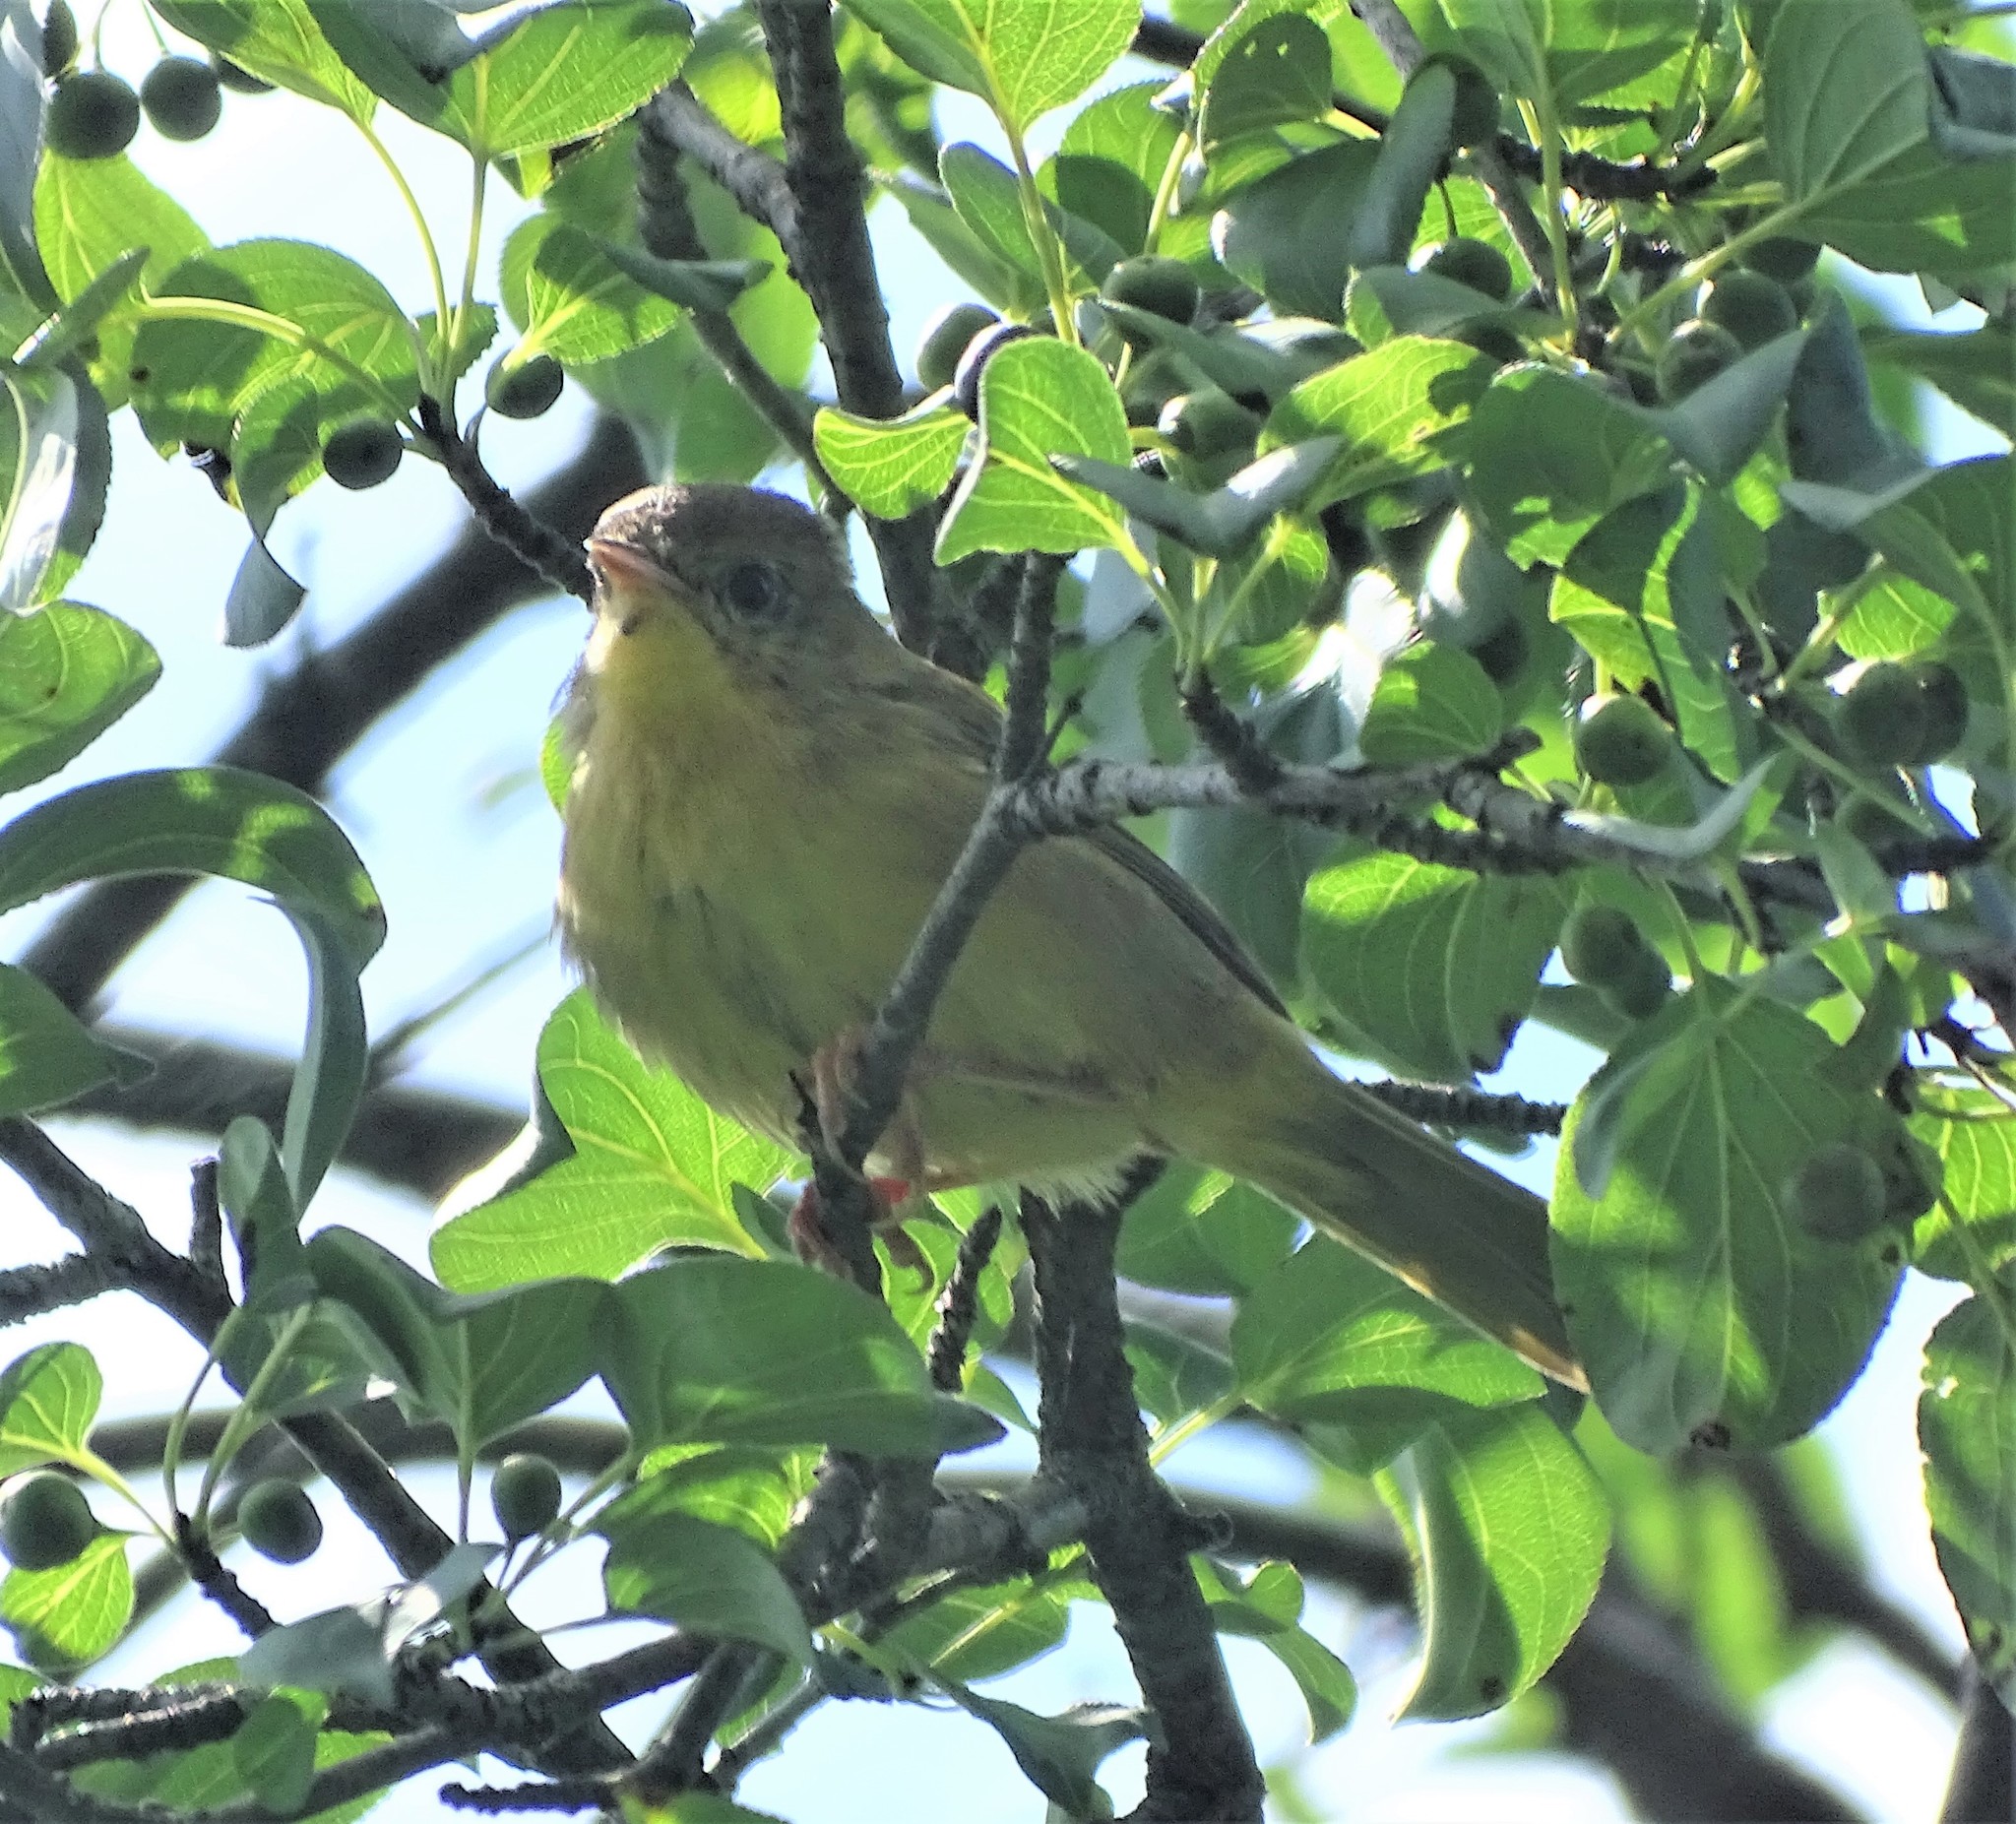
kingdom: Animalia
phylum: Chordata
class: Aves
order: Passeriformes
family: Parulidae
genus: Geothlypis
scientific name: Geothlypis trichas
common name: Common yellowthroat
